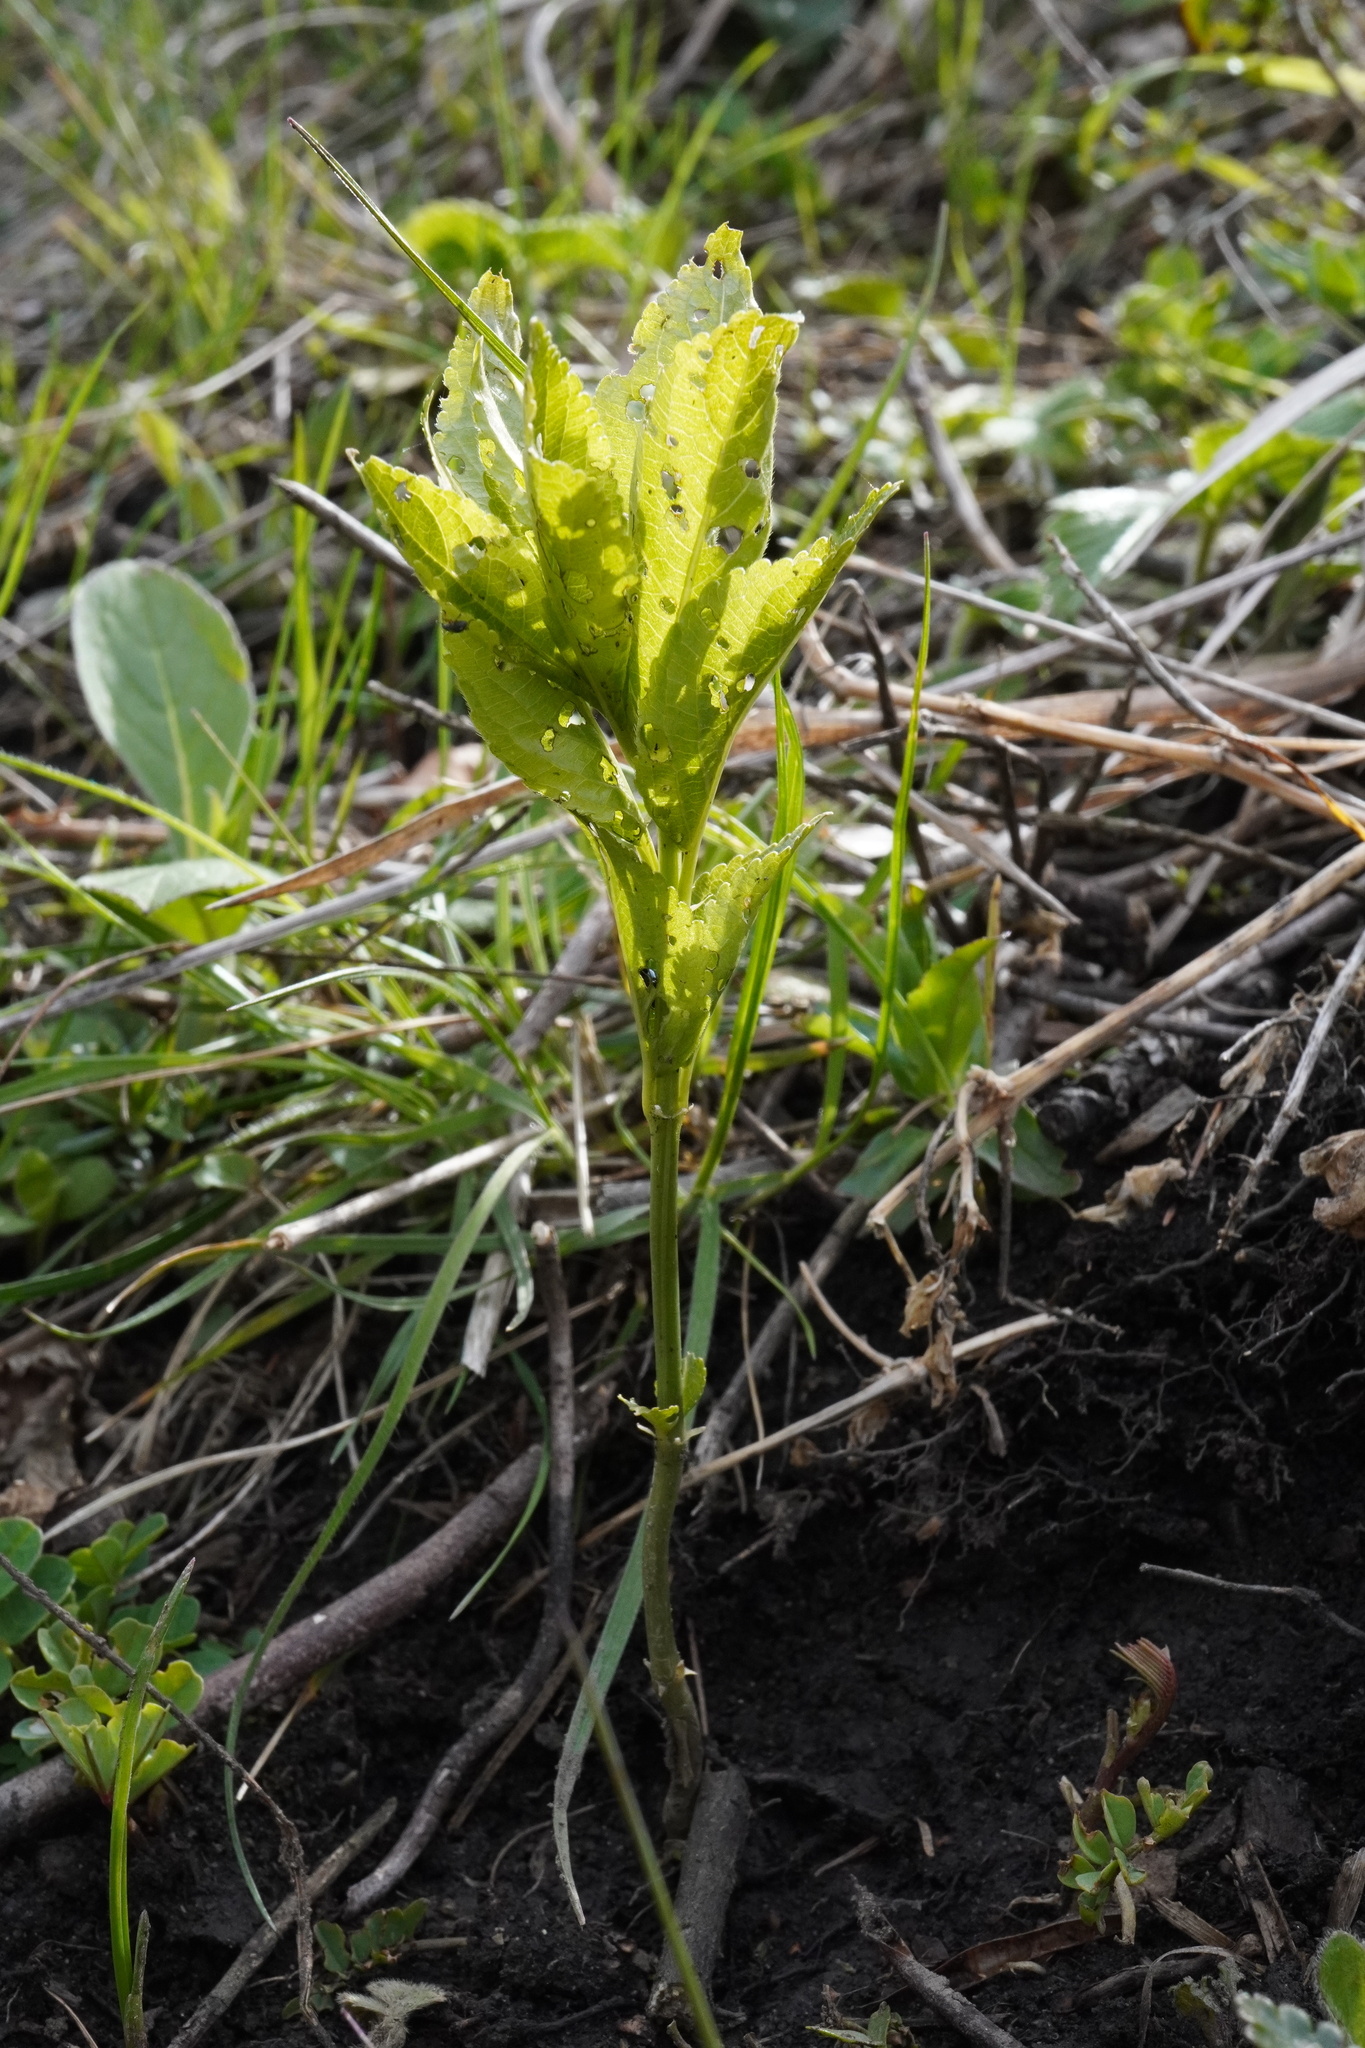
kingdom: Plantae
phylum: Tracheophyta
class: Magnoliopsida
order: Malpighiales
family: Euphorbiaceae
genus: Mercurialis
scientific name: Mercurialis perennis
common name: Dog mercury
